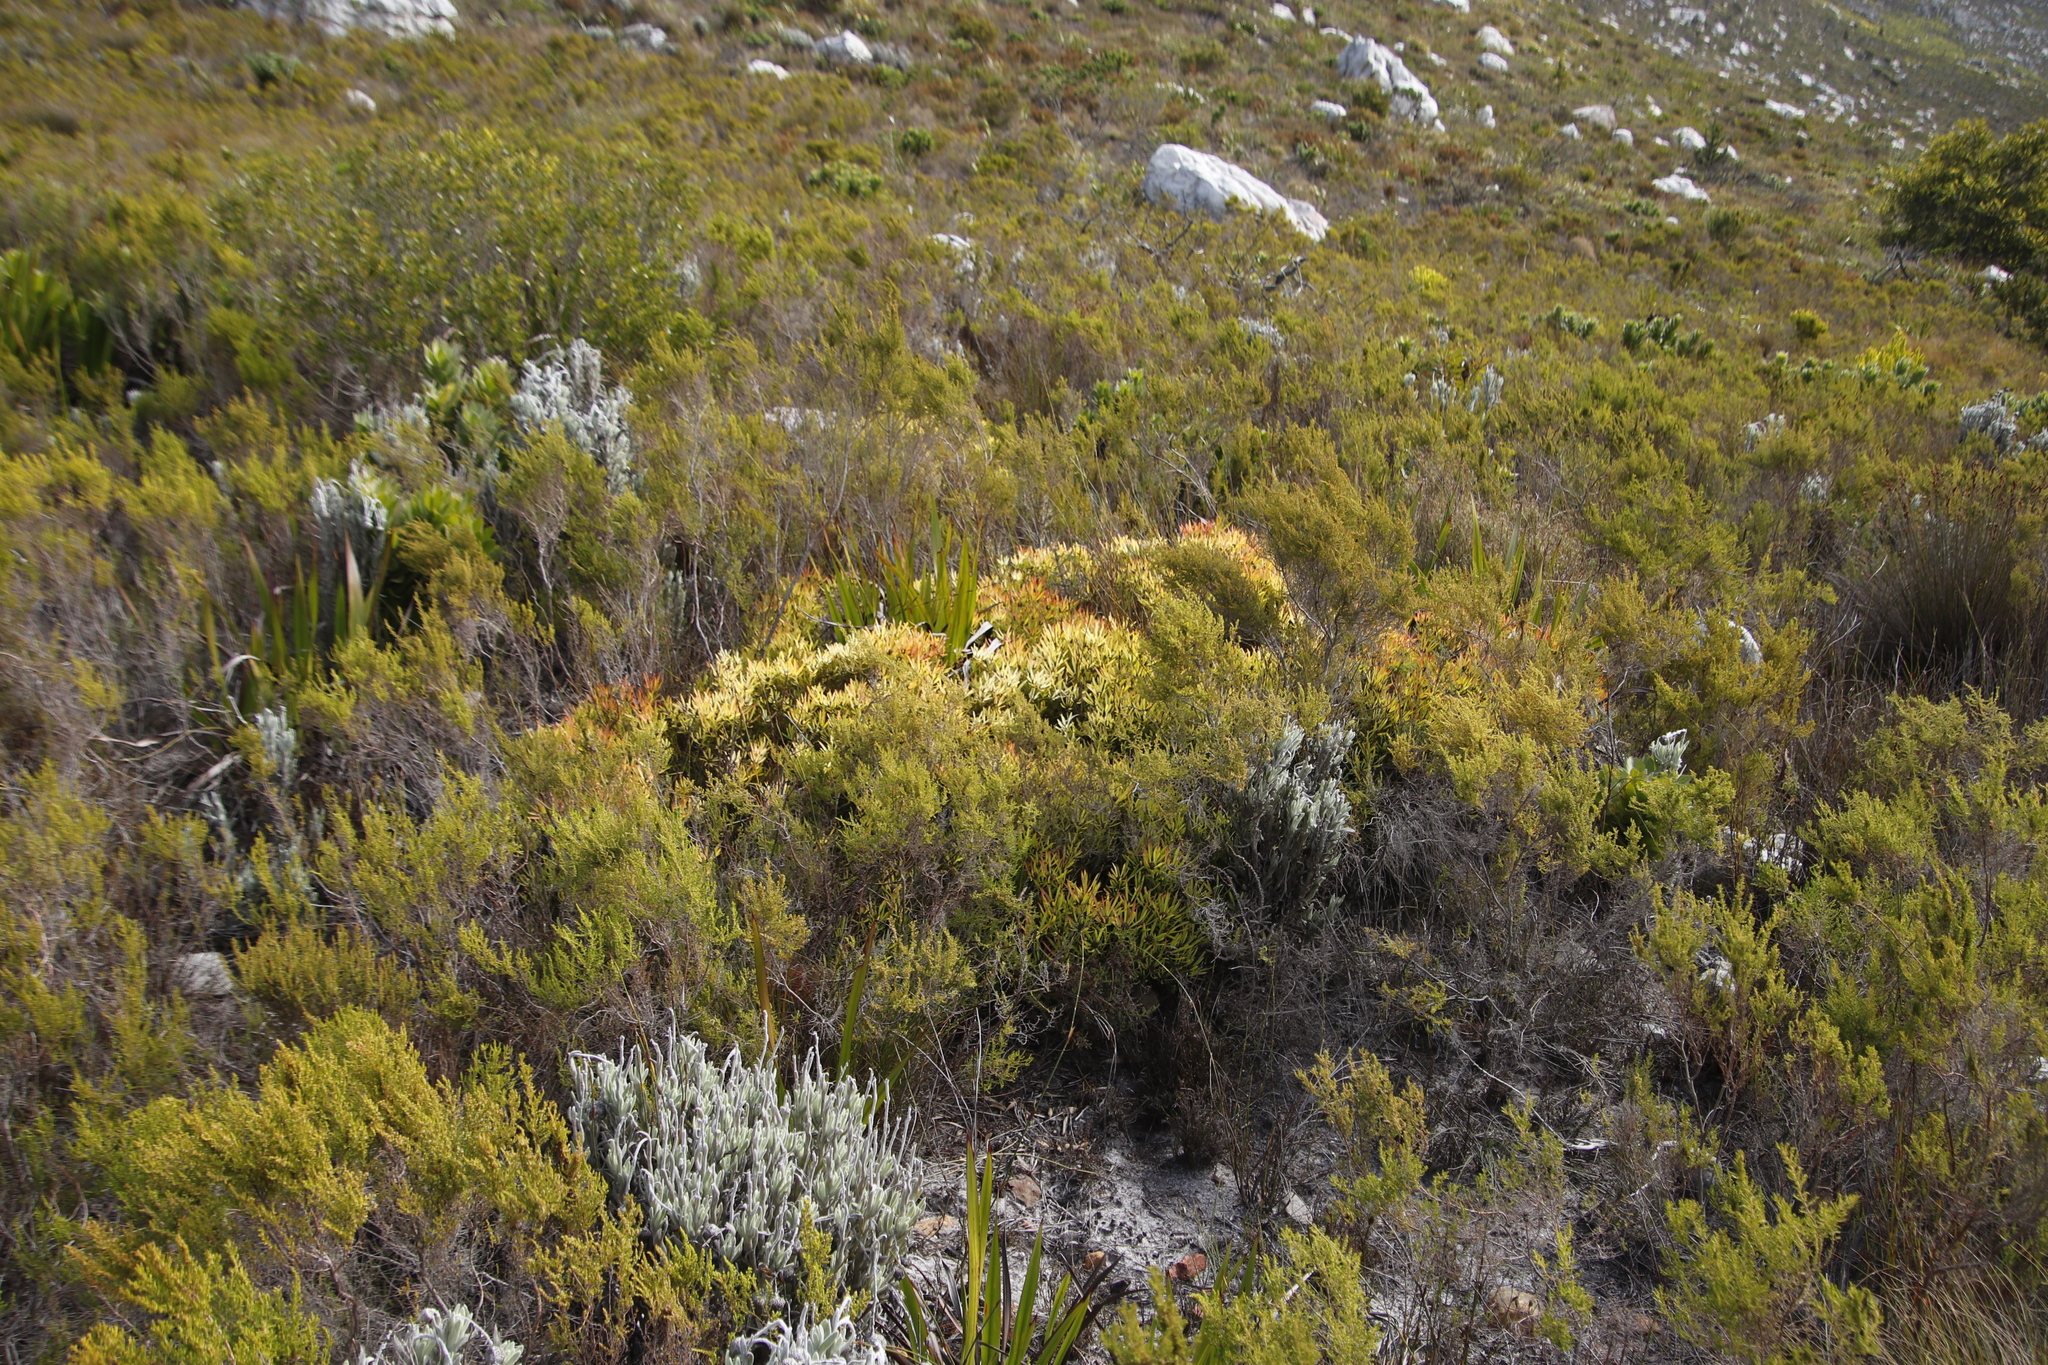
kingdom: Plantae
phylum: Tracheophyta
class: Magnoliopsida
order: Proteales
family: Proteaceae
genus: Leucadendron
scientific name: Leucadendron salignum
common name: Common sunshine conebush
